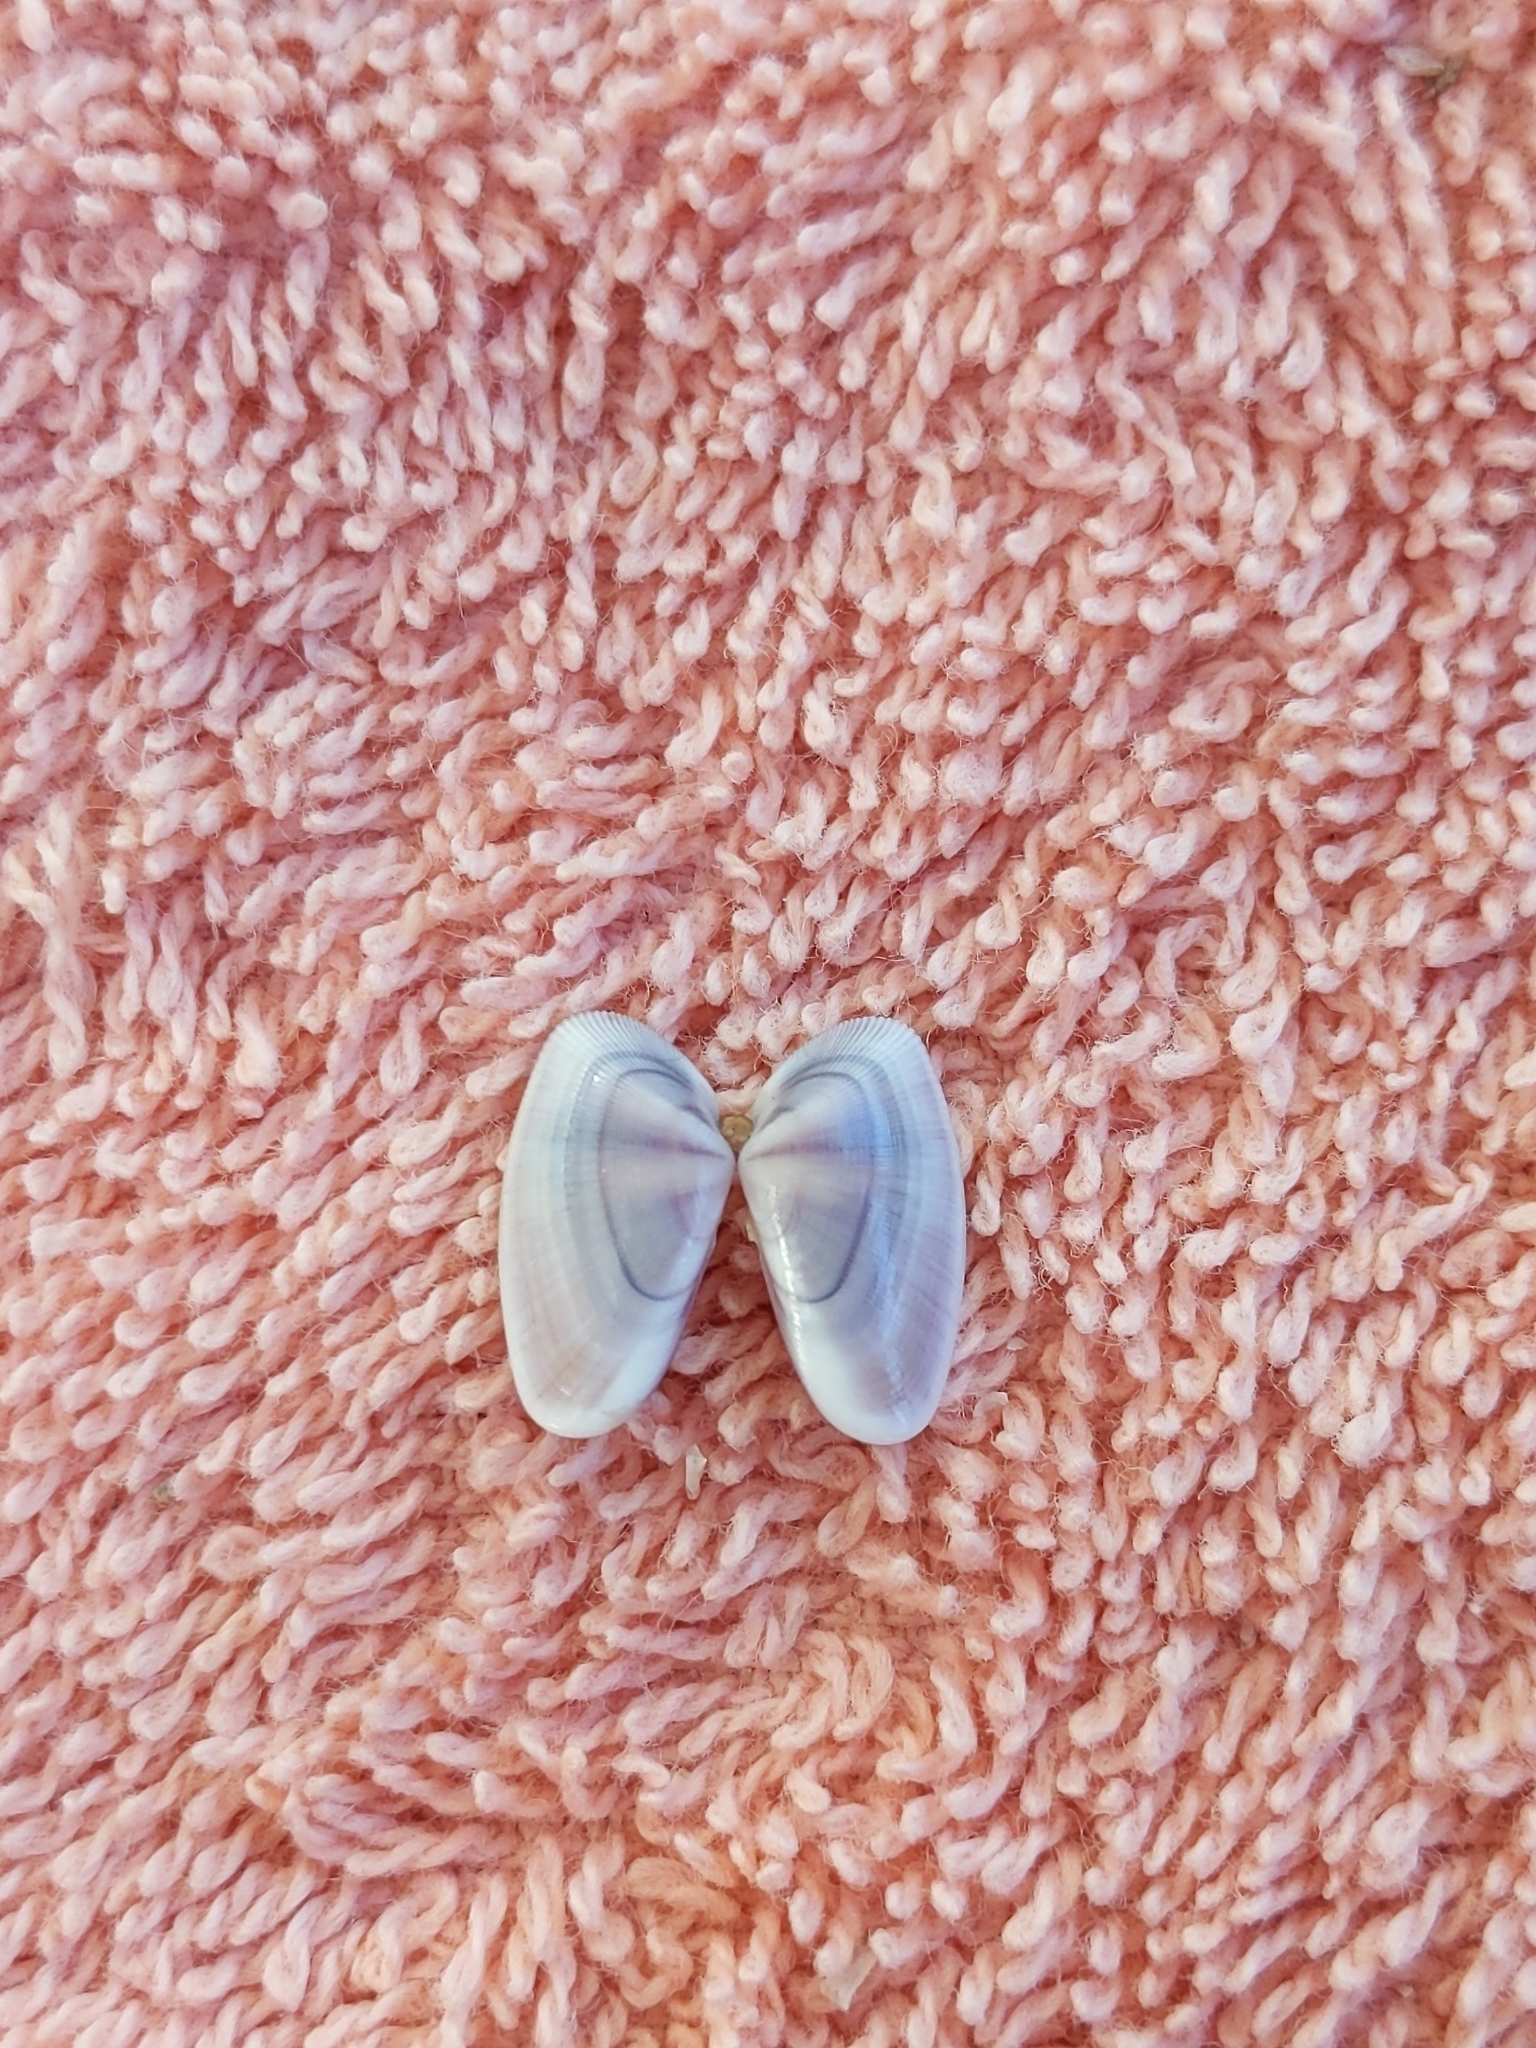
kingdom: Animalia
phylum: Mollusca
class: Bivalvia
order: Cardiida
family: Donacidae
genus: Donax
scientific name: Donax variabilis
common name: Butterfly shell
